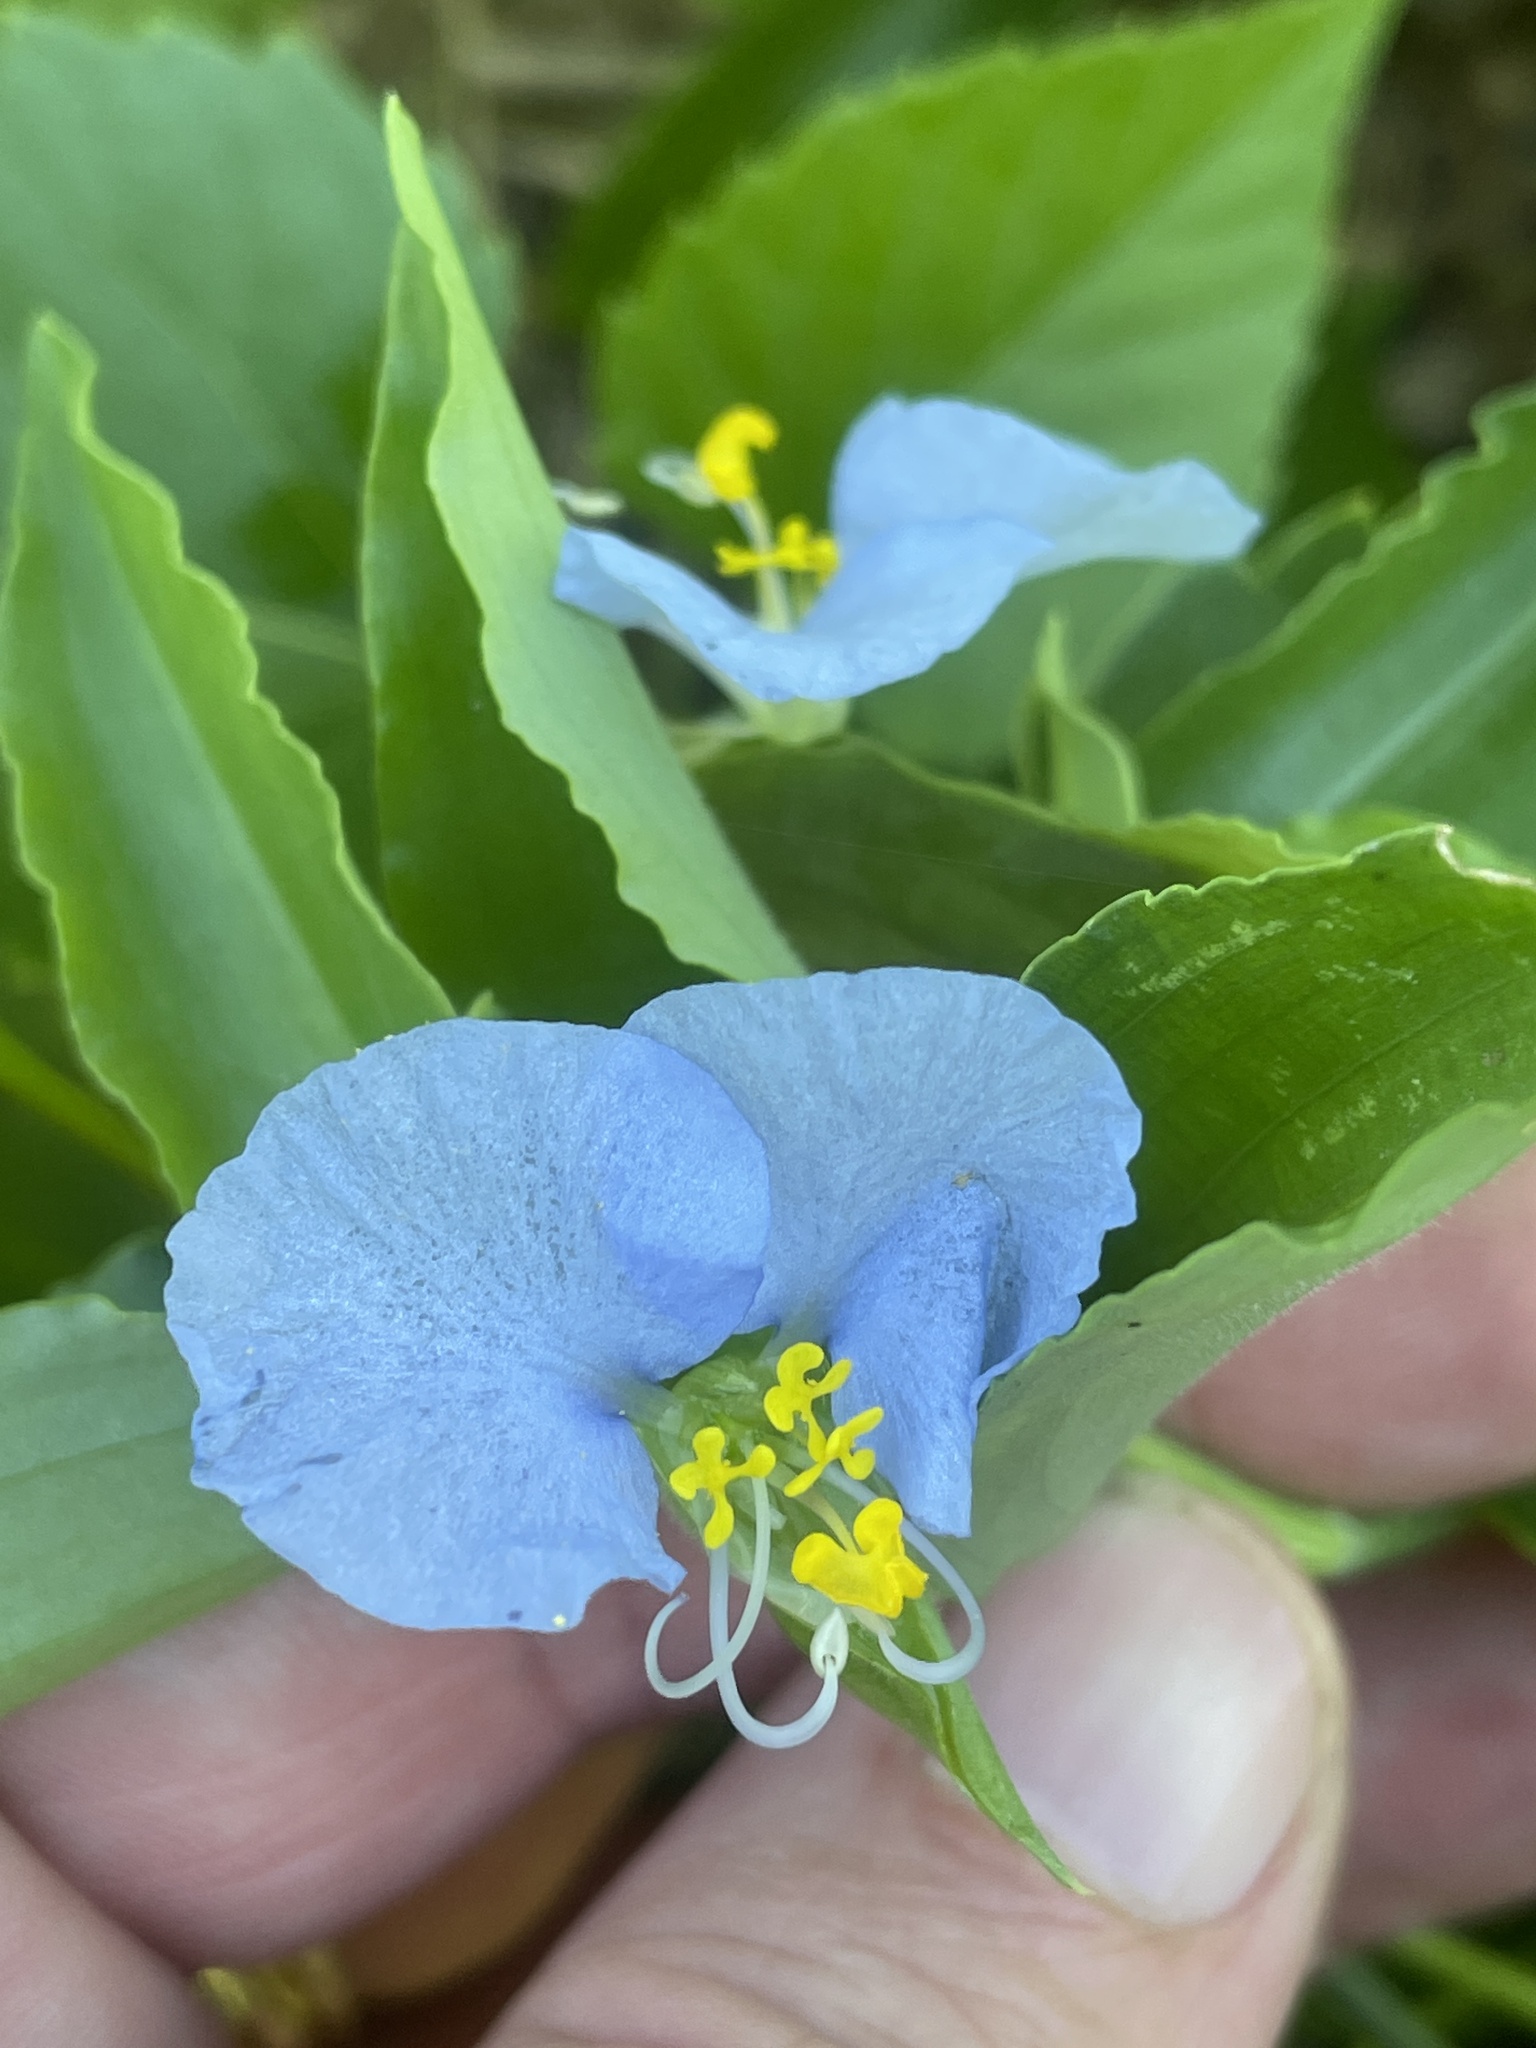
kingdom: Plantae
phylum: Tracheophyta
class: Liliopsida
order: Commelinales
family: Commelinaceae
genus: Commelina
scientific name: Commelina erecta
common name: Blousel blommetjie
